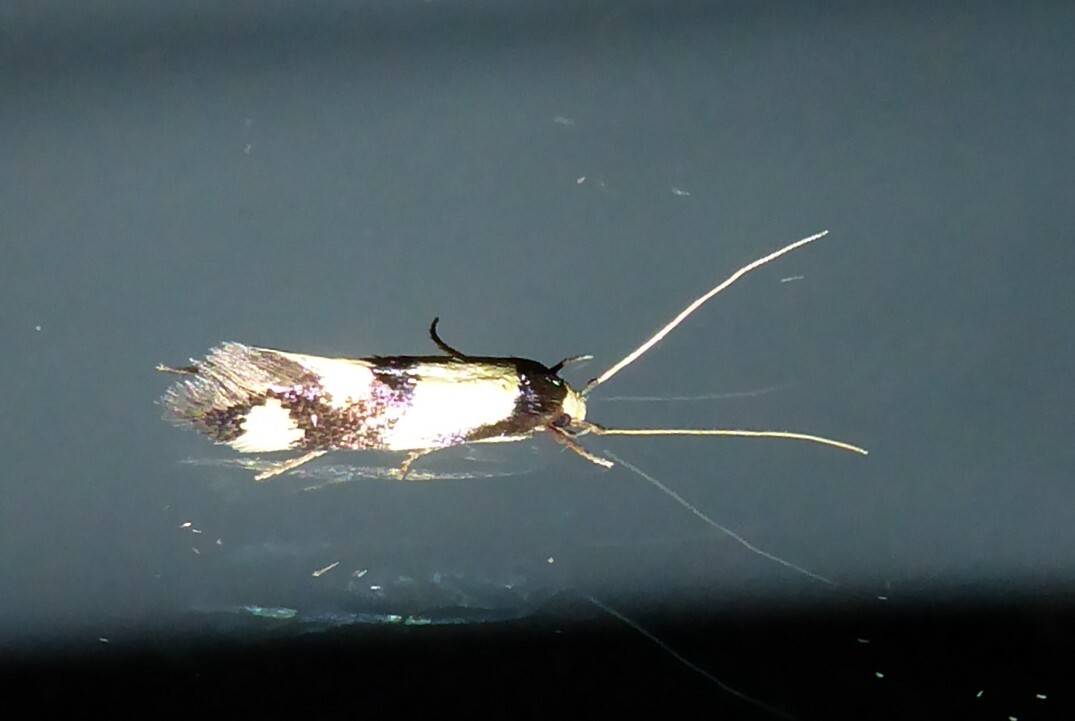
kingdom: Animalia
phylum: Arthropoda
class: Insecta
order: Lepidoptera
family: Tineidae
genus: Opogona
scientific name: Opogona comptella
